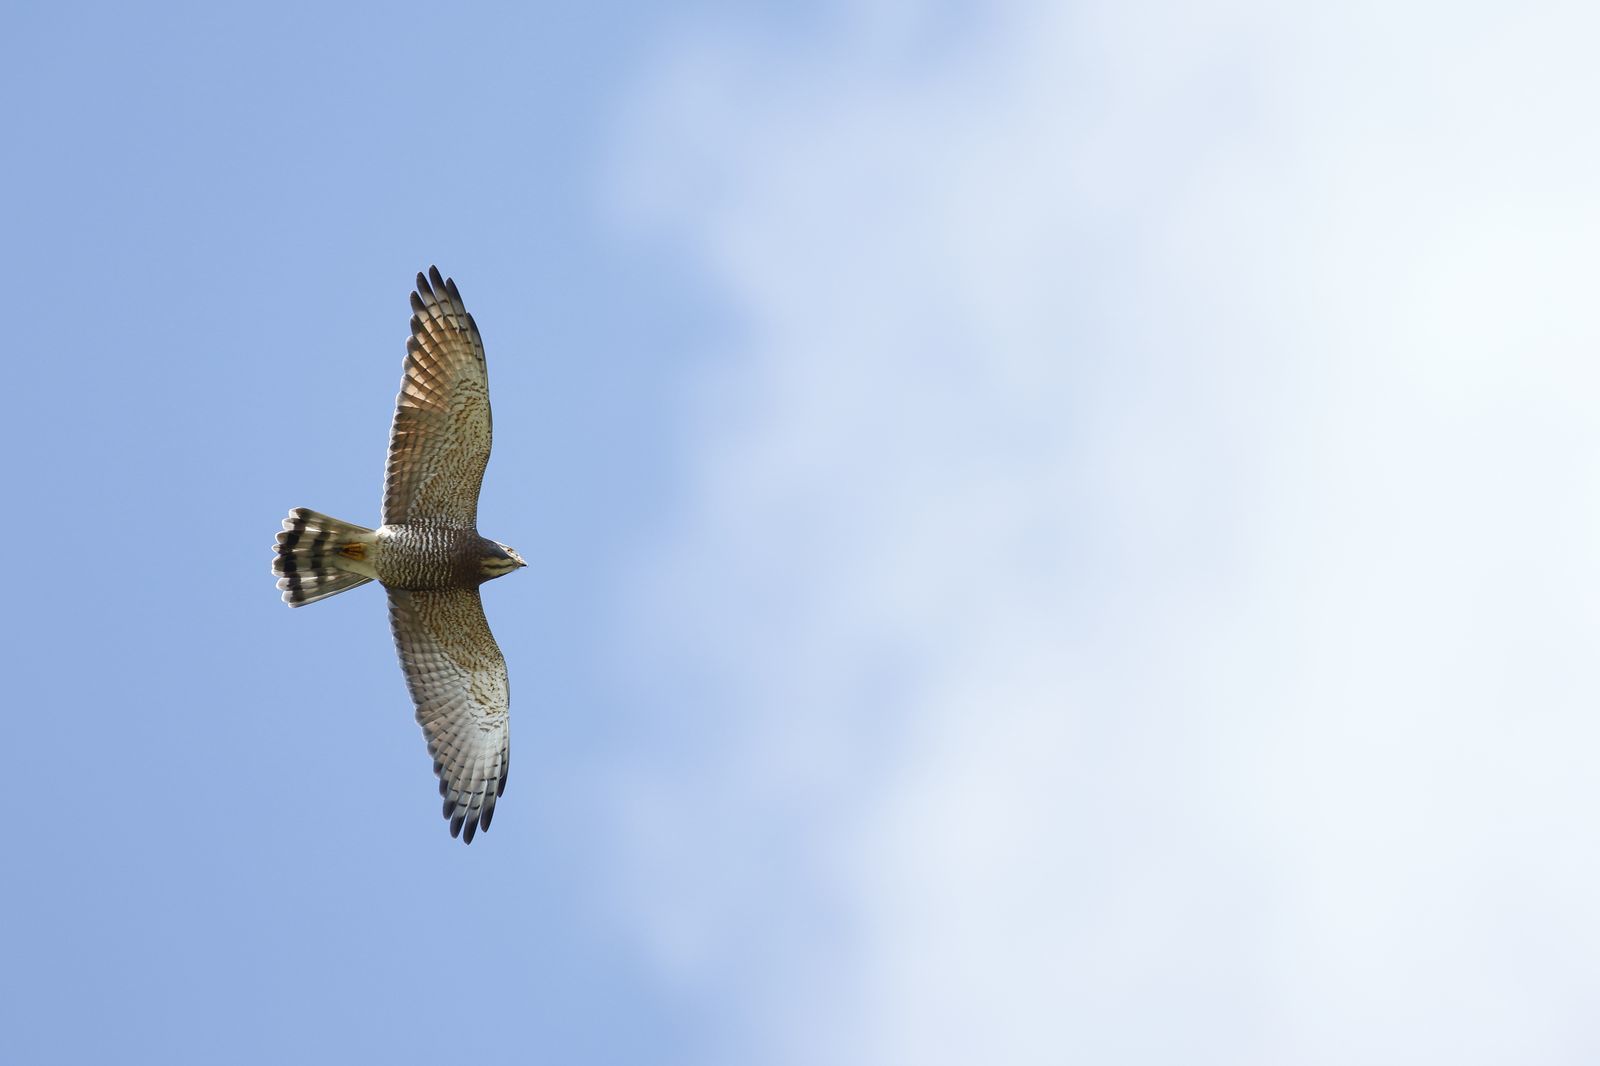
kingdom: Animalia
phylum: Chordata
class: Aves
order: Accipitriformes
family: Accipitridae
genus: Butastur
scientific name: Butastur indicus
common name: Grey-faced buzzard
